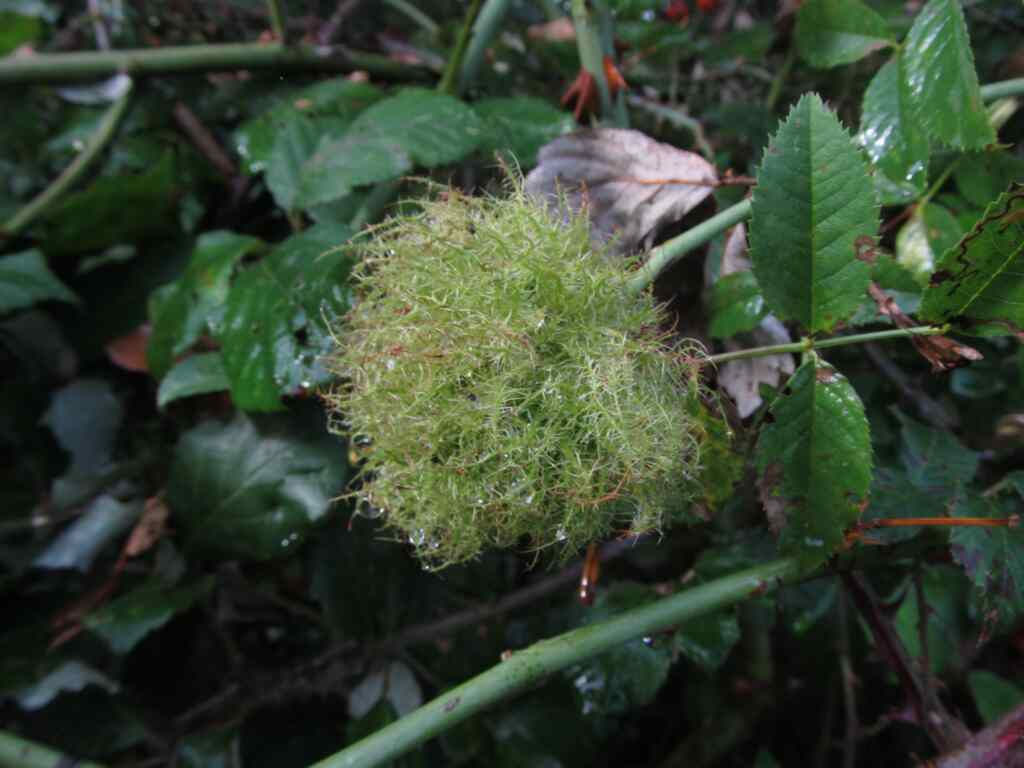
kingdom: Animalia
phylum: Arthropoda
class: Insecta
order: Hymenoptera
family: Cynipidae
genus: Diplolepis
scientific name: Diplolepis rosae
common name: Bedeguar gall
